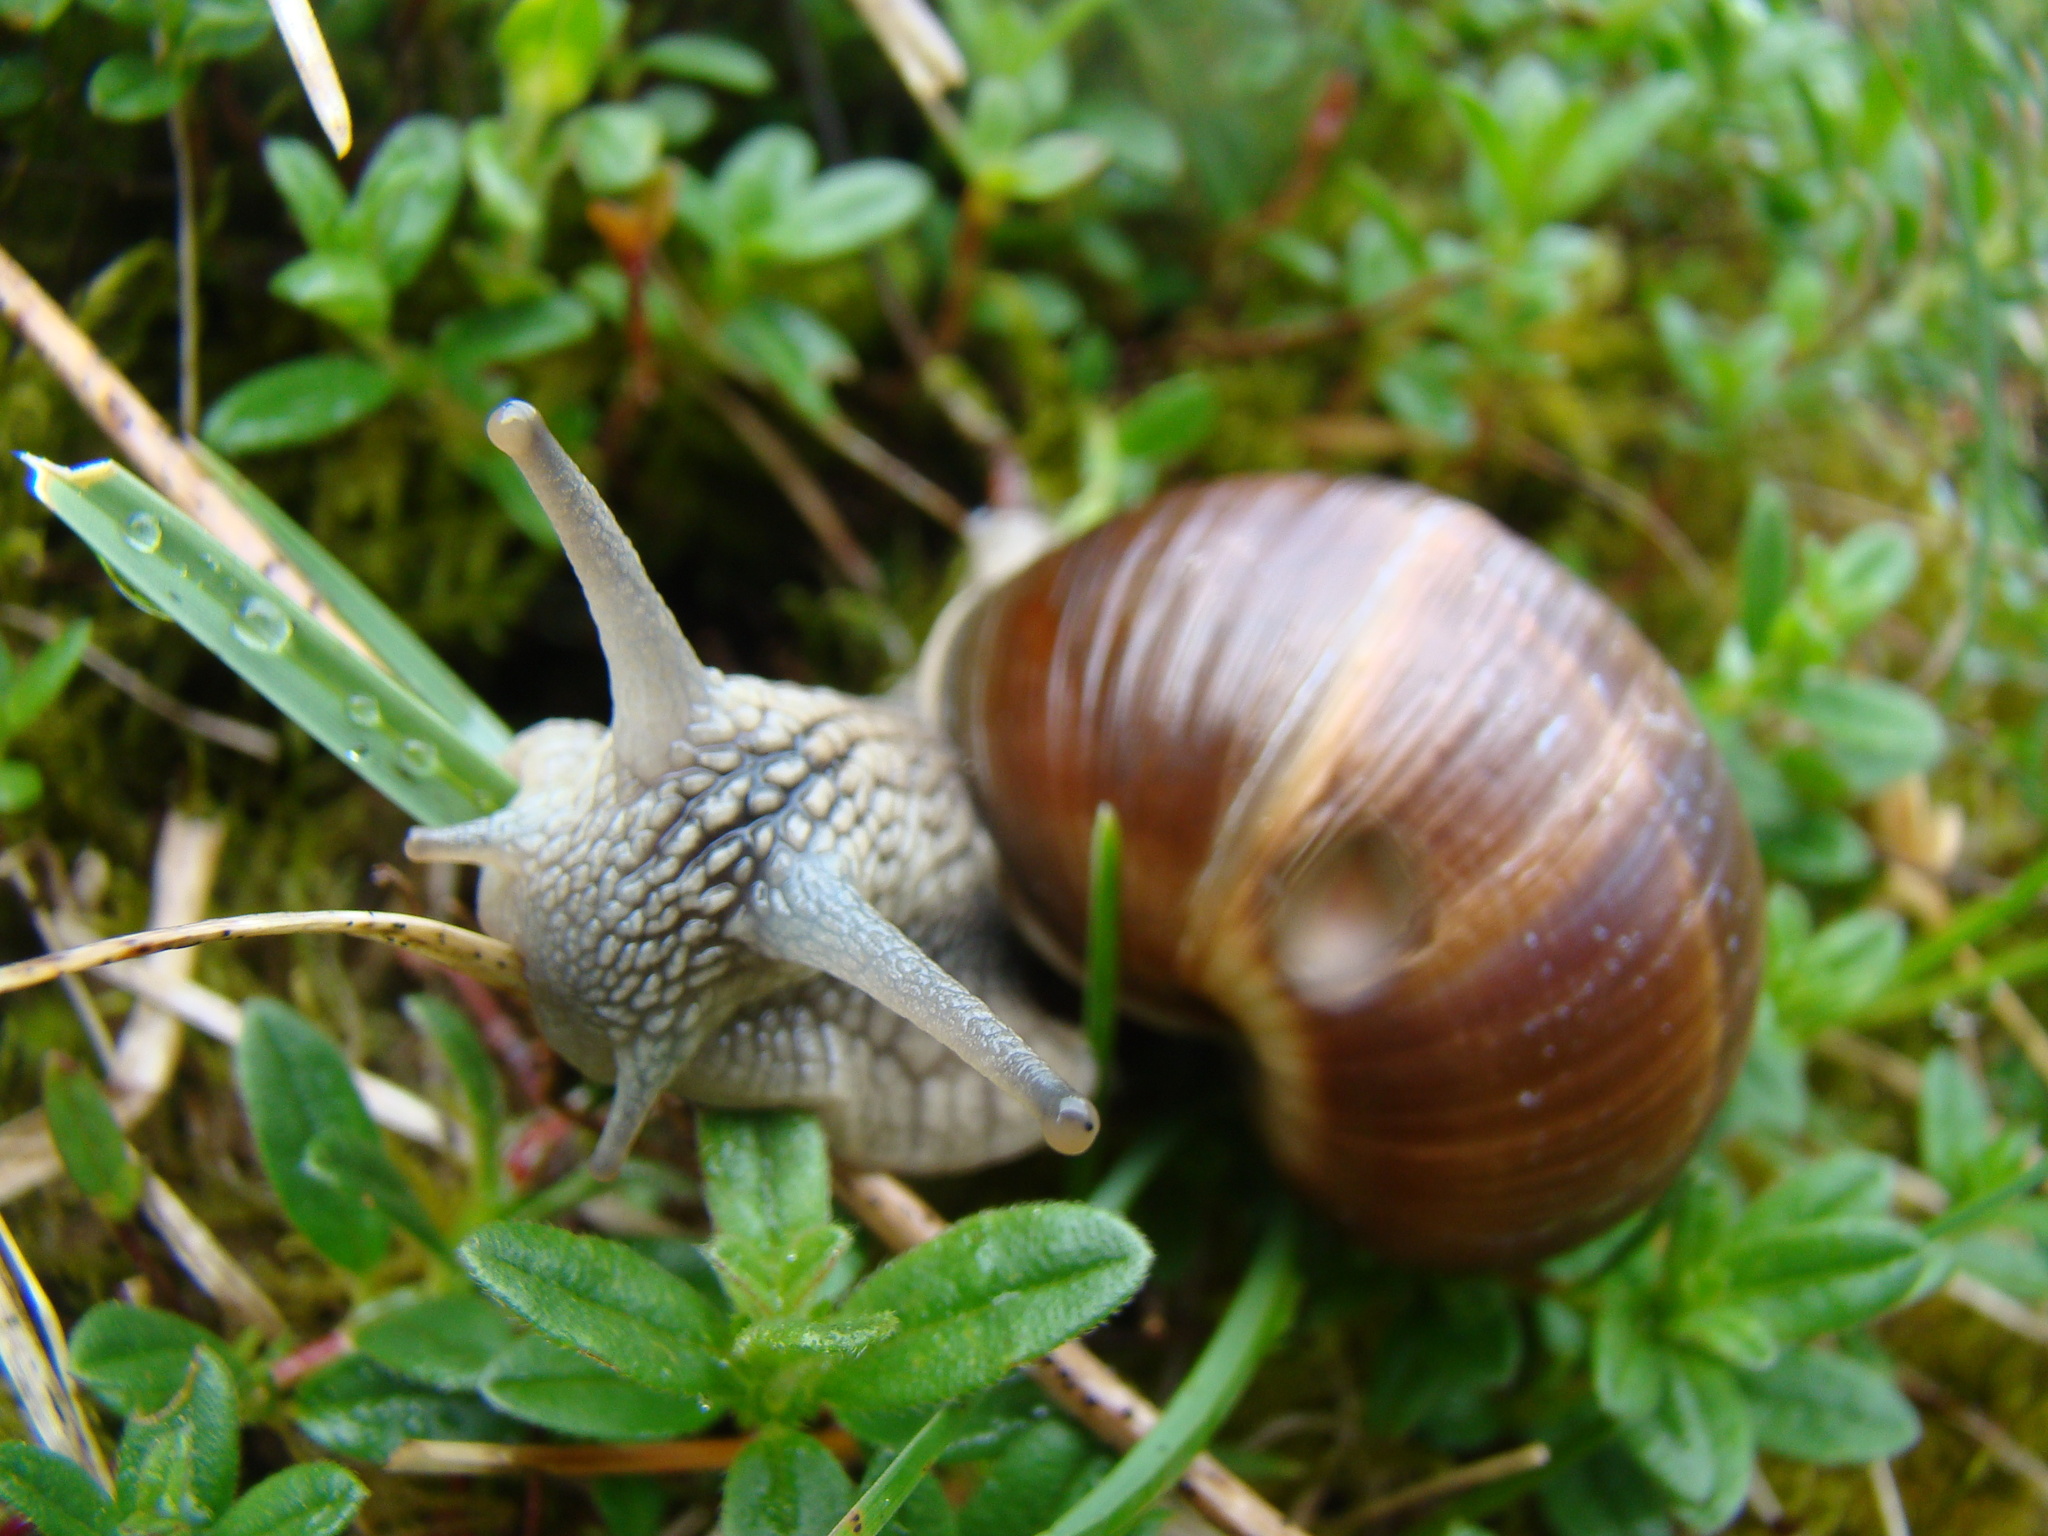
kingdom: Animalia
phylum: Mollusca
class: Gastropoda
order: Stylommatophora
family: Helicidae
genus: Helix
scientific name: Helix pomatia
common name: Roman snail
